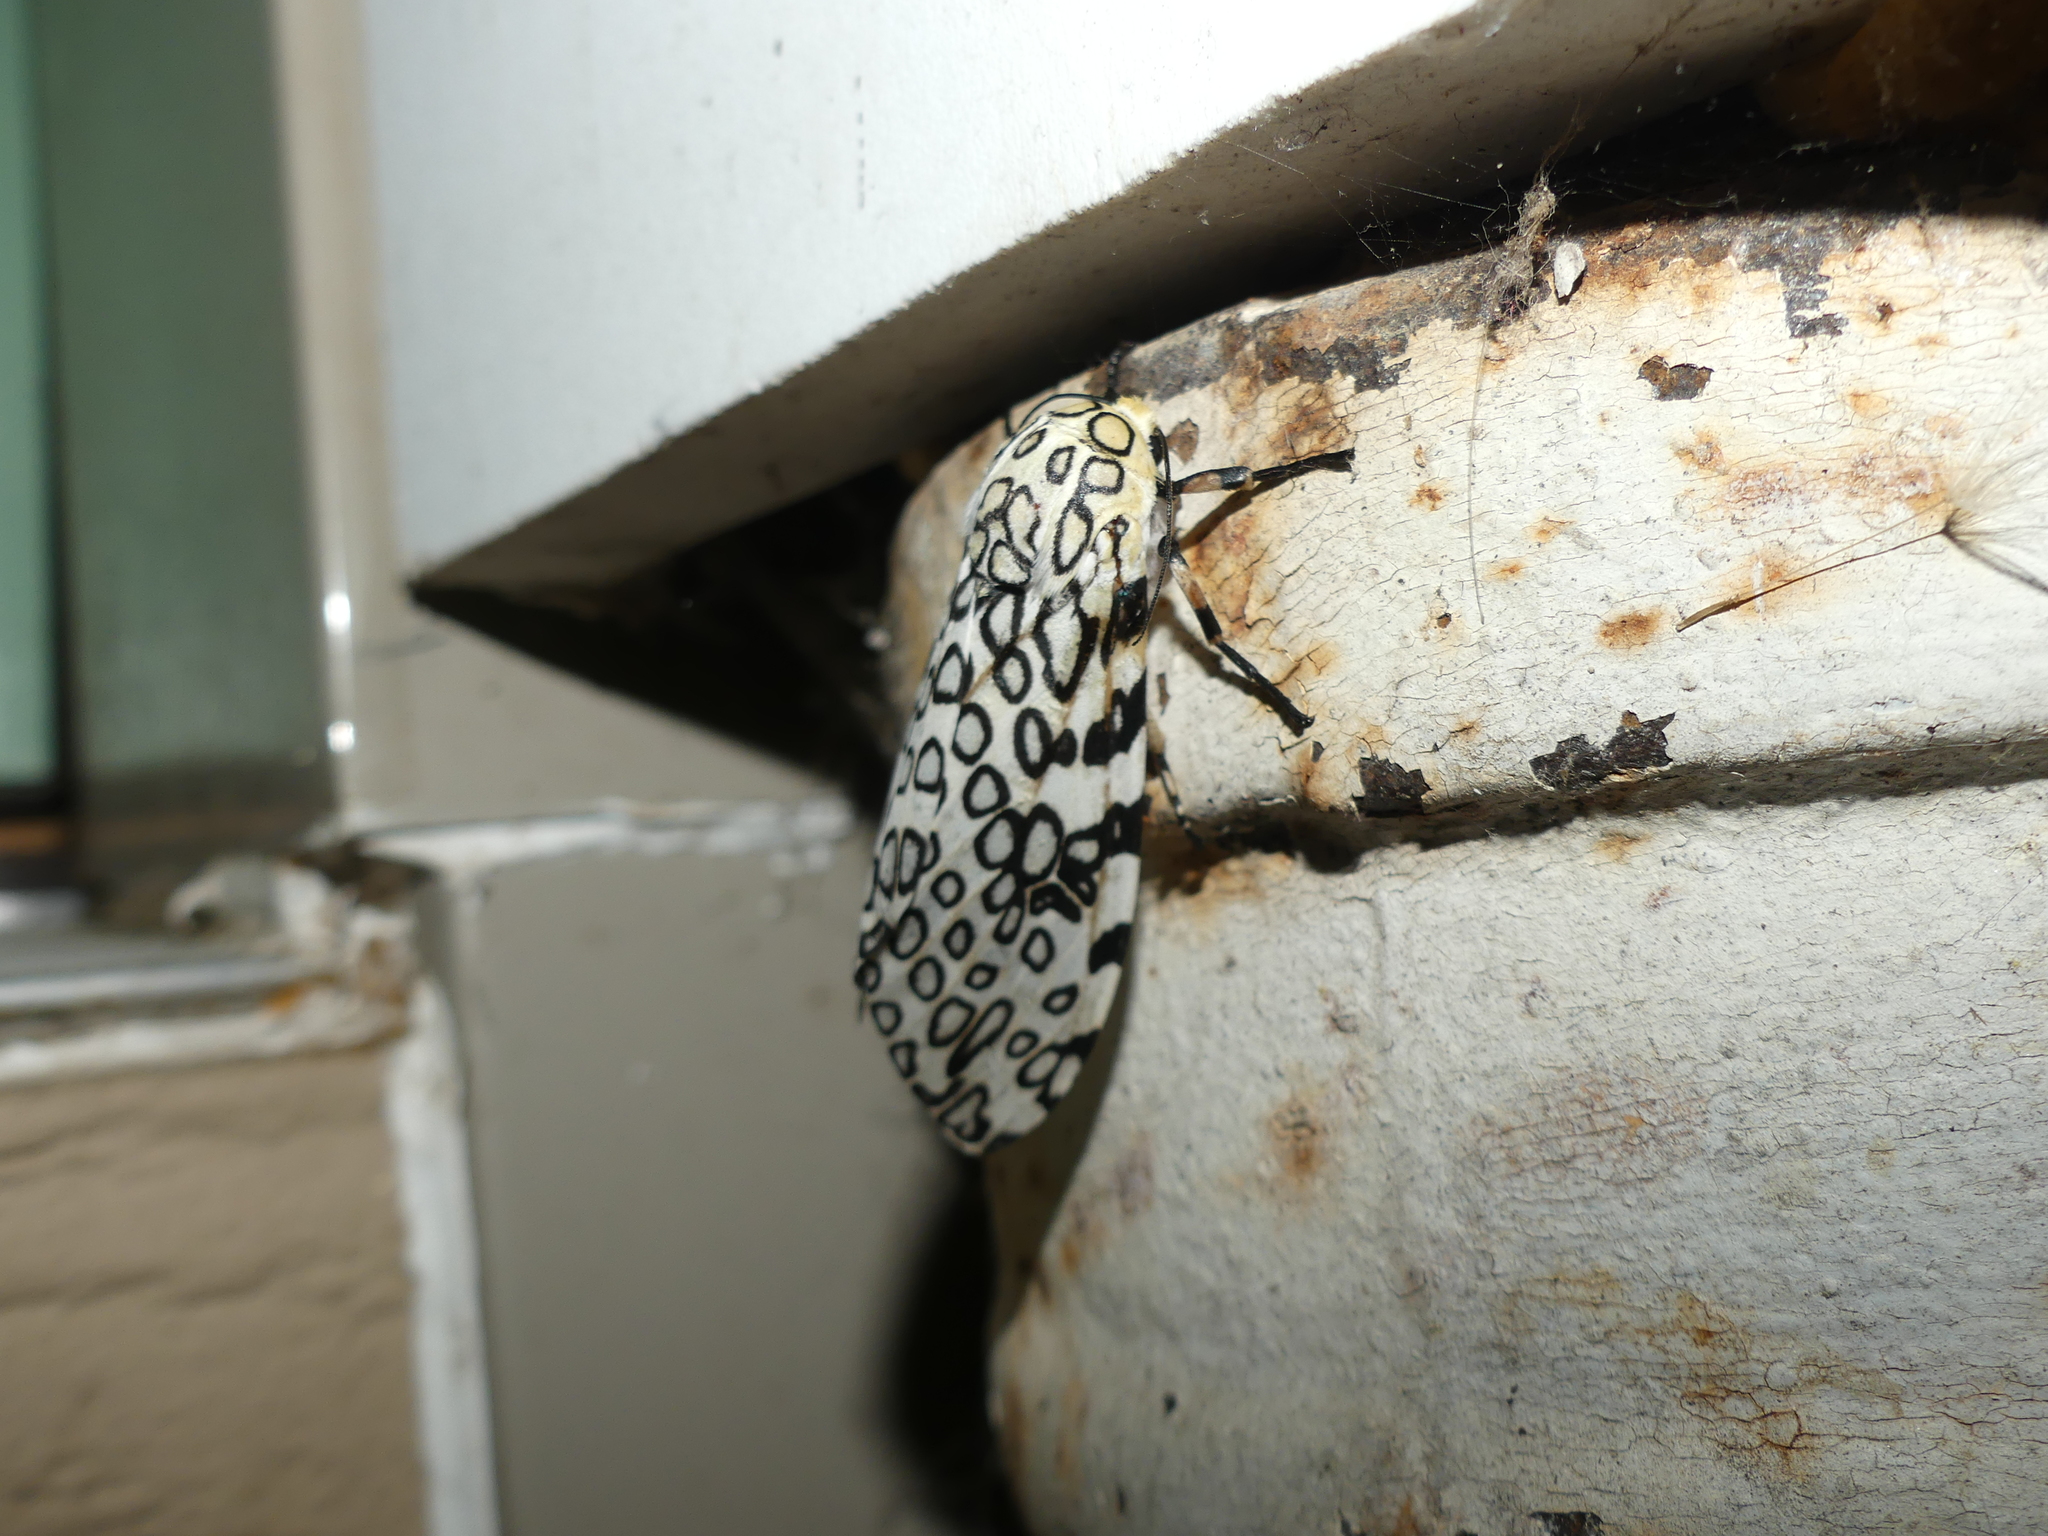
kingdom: Animalia
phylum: Arthropoda
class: Insecta
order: Lepidoptera
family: Erebidae
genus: Hypercompe
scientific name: Hypercompe scribonia
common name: Giant leopard moth
